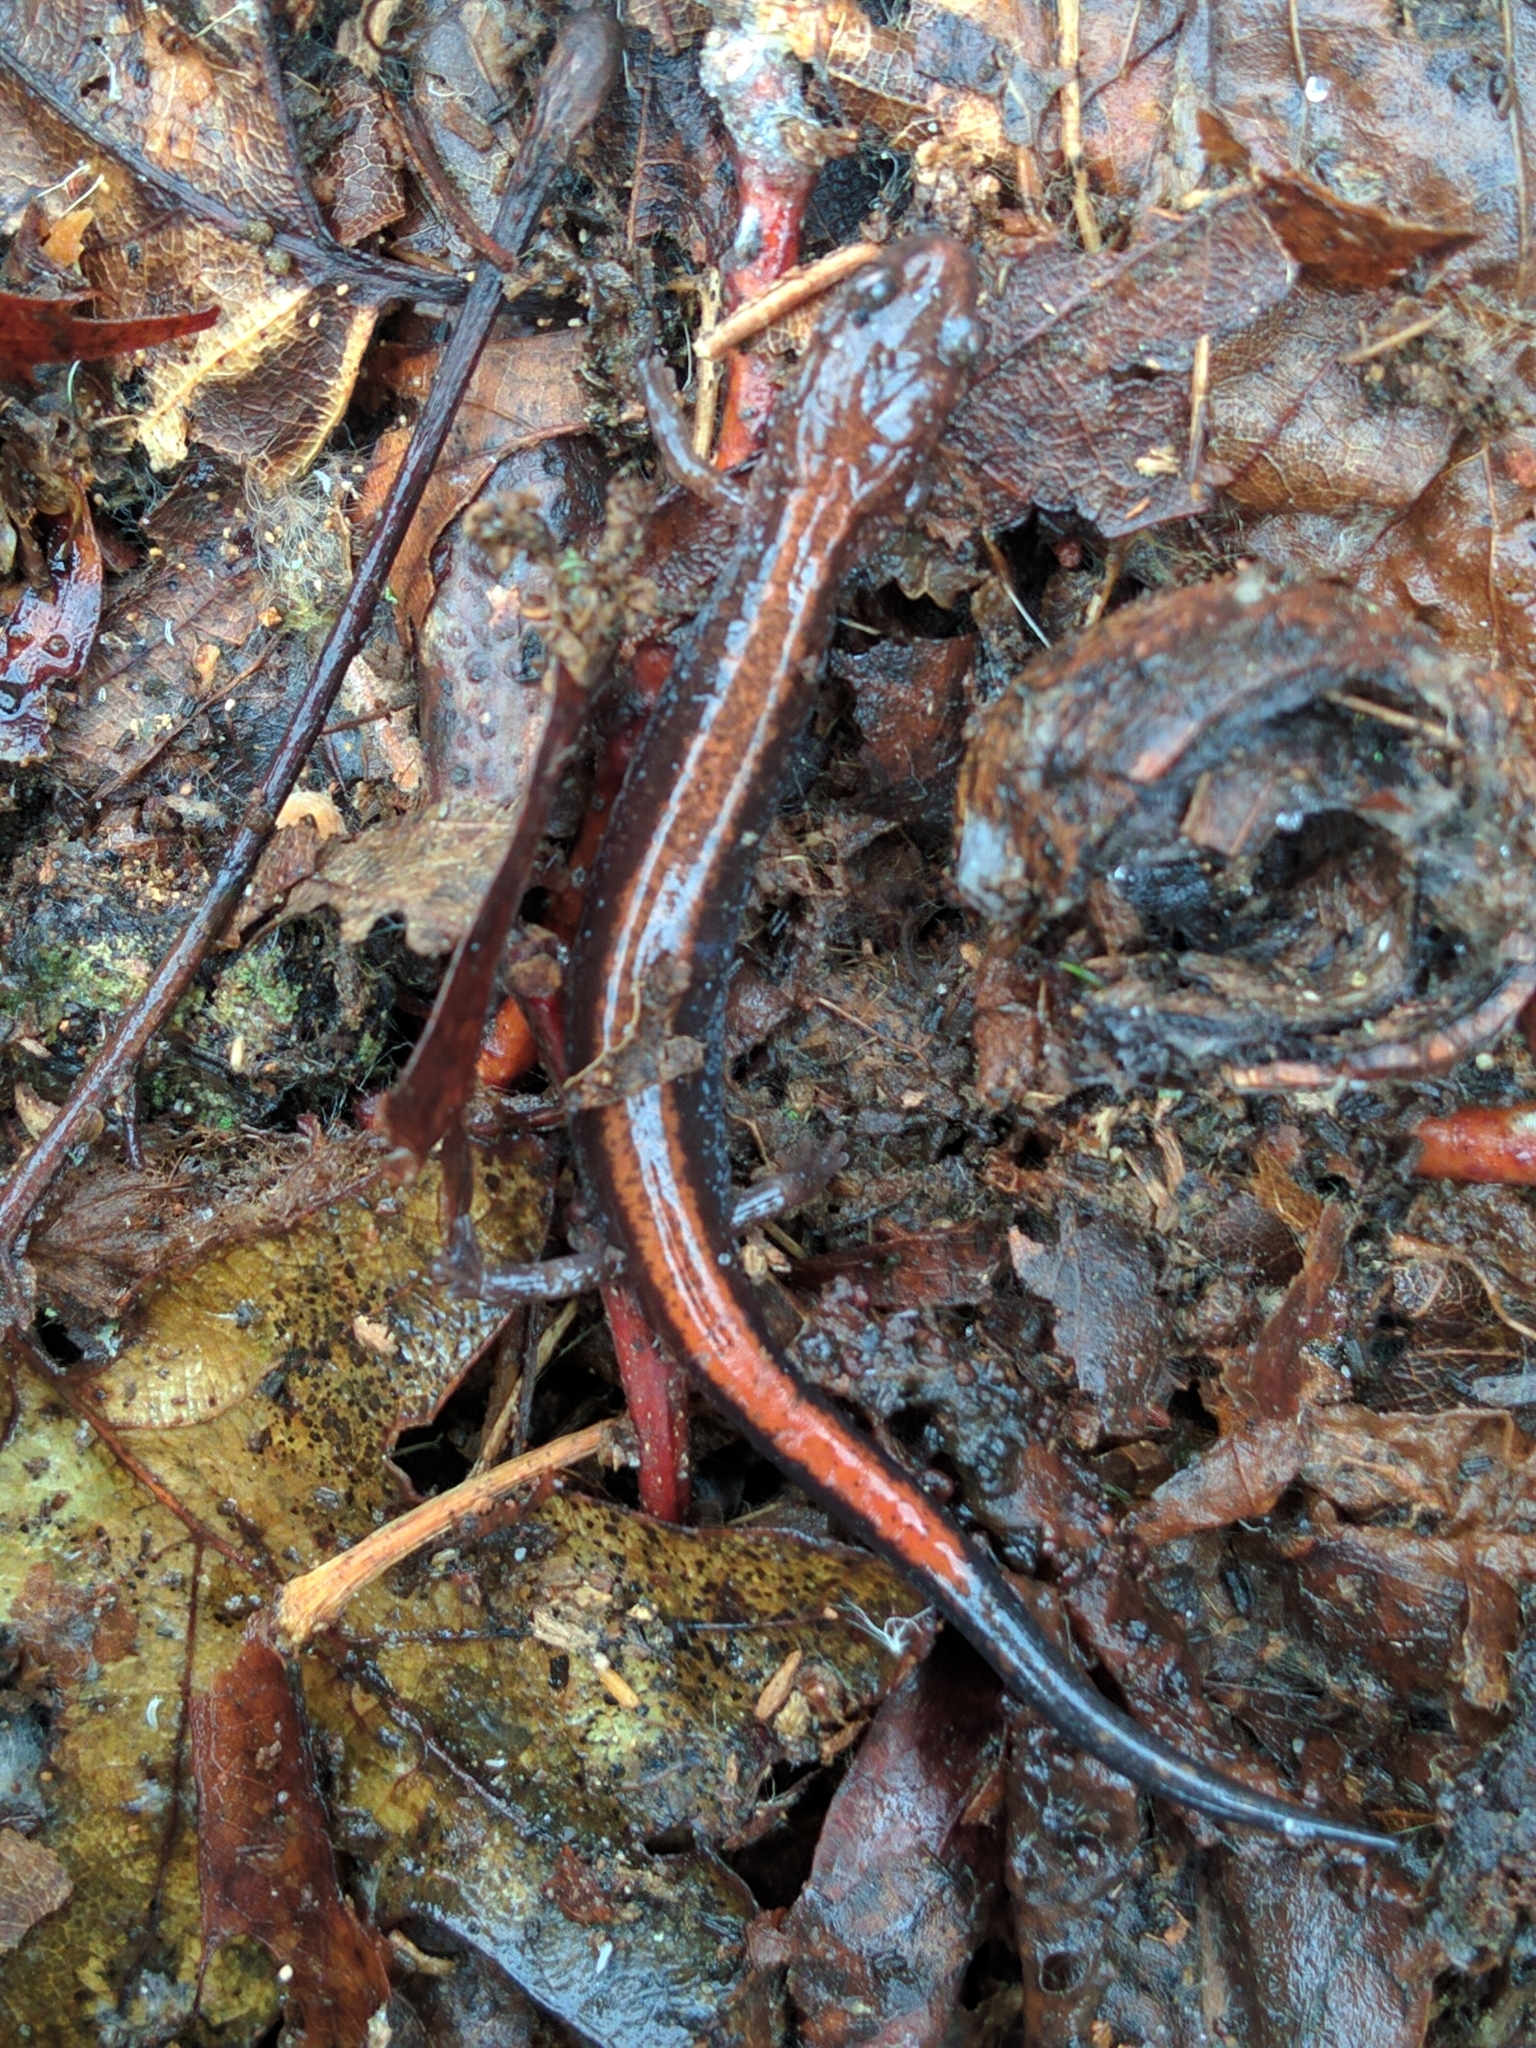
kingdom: Animalia
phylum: Chordata
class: Amphibia
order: Caudata
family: Plethodontidae
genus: Plethodon
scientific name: Plethodon cinereus
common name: Redback salamander
